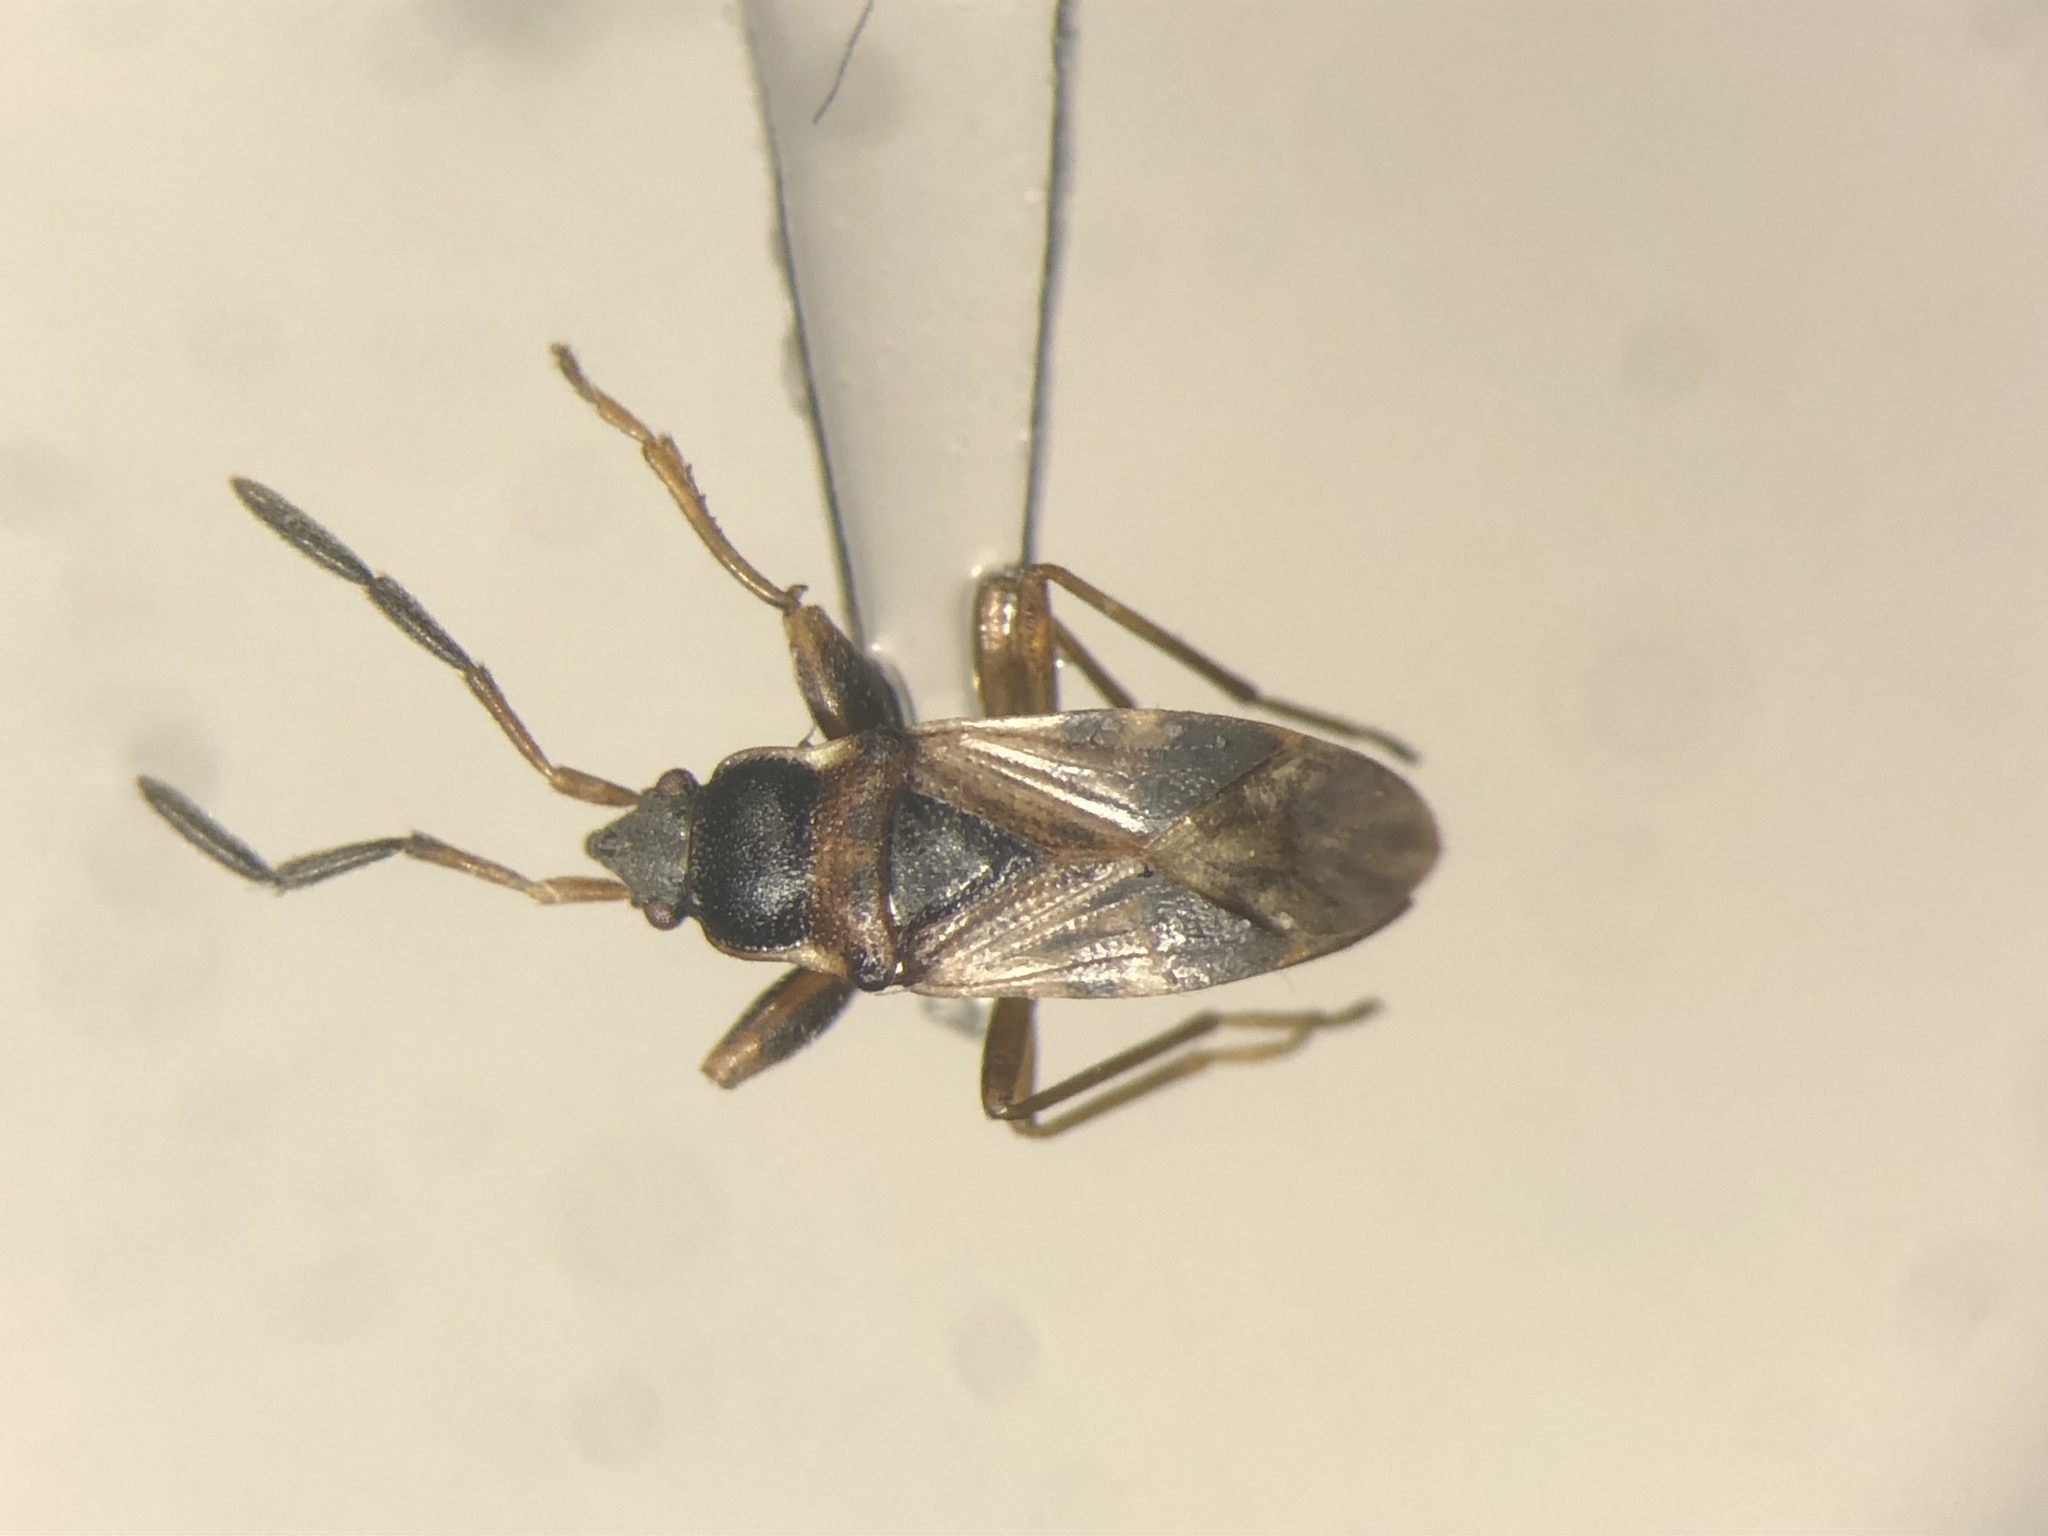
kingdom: Animalia
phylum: Arthropoda
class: Insecta
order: Hemiptera
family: Rhyparochromidae
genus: Scolopostethus
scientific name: Scolopostethus thomsoni
